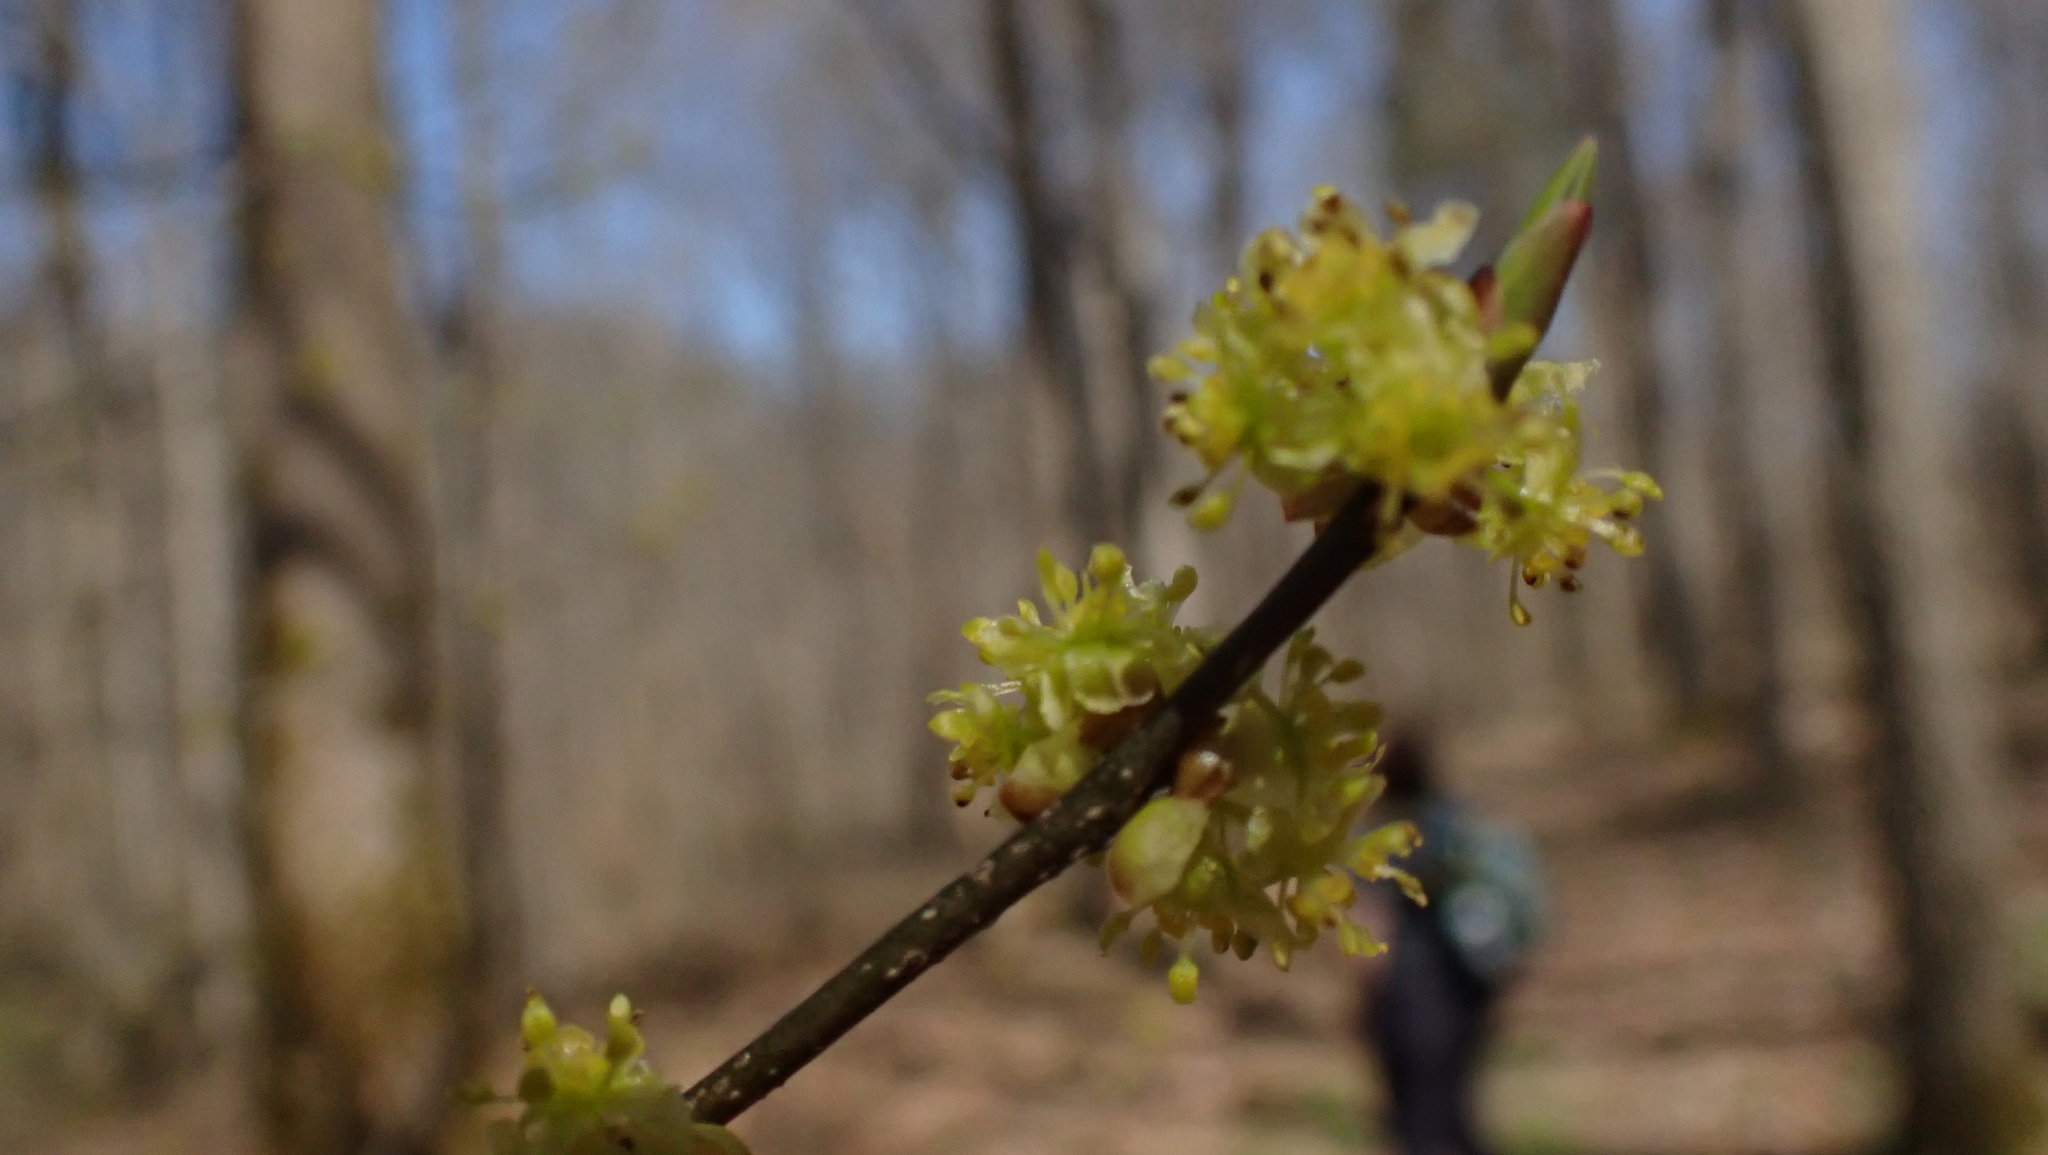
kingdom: Plantae
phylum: Tracheophyta
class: Magnoliopsida
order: Laurales
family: Lauraceae
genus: Lindera
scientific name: Lindera benzoin
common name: Spicebush
